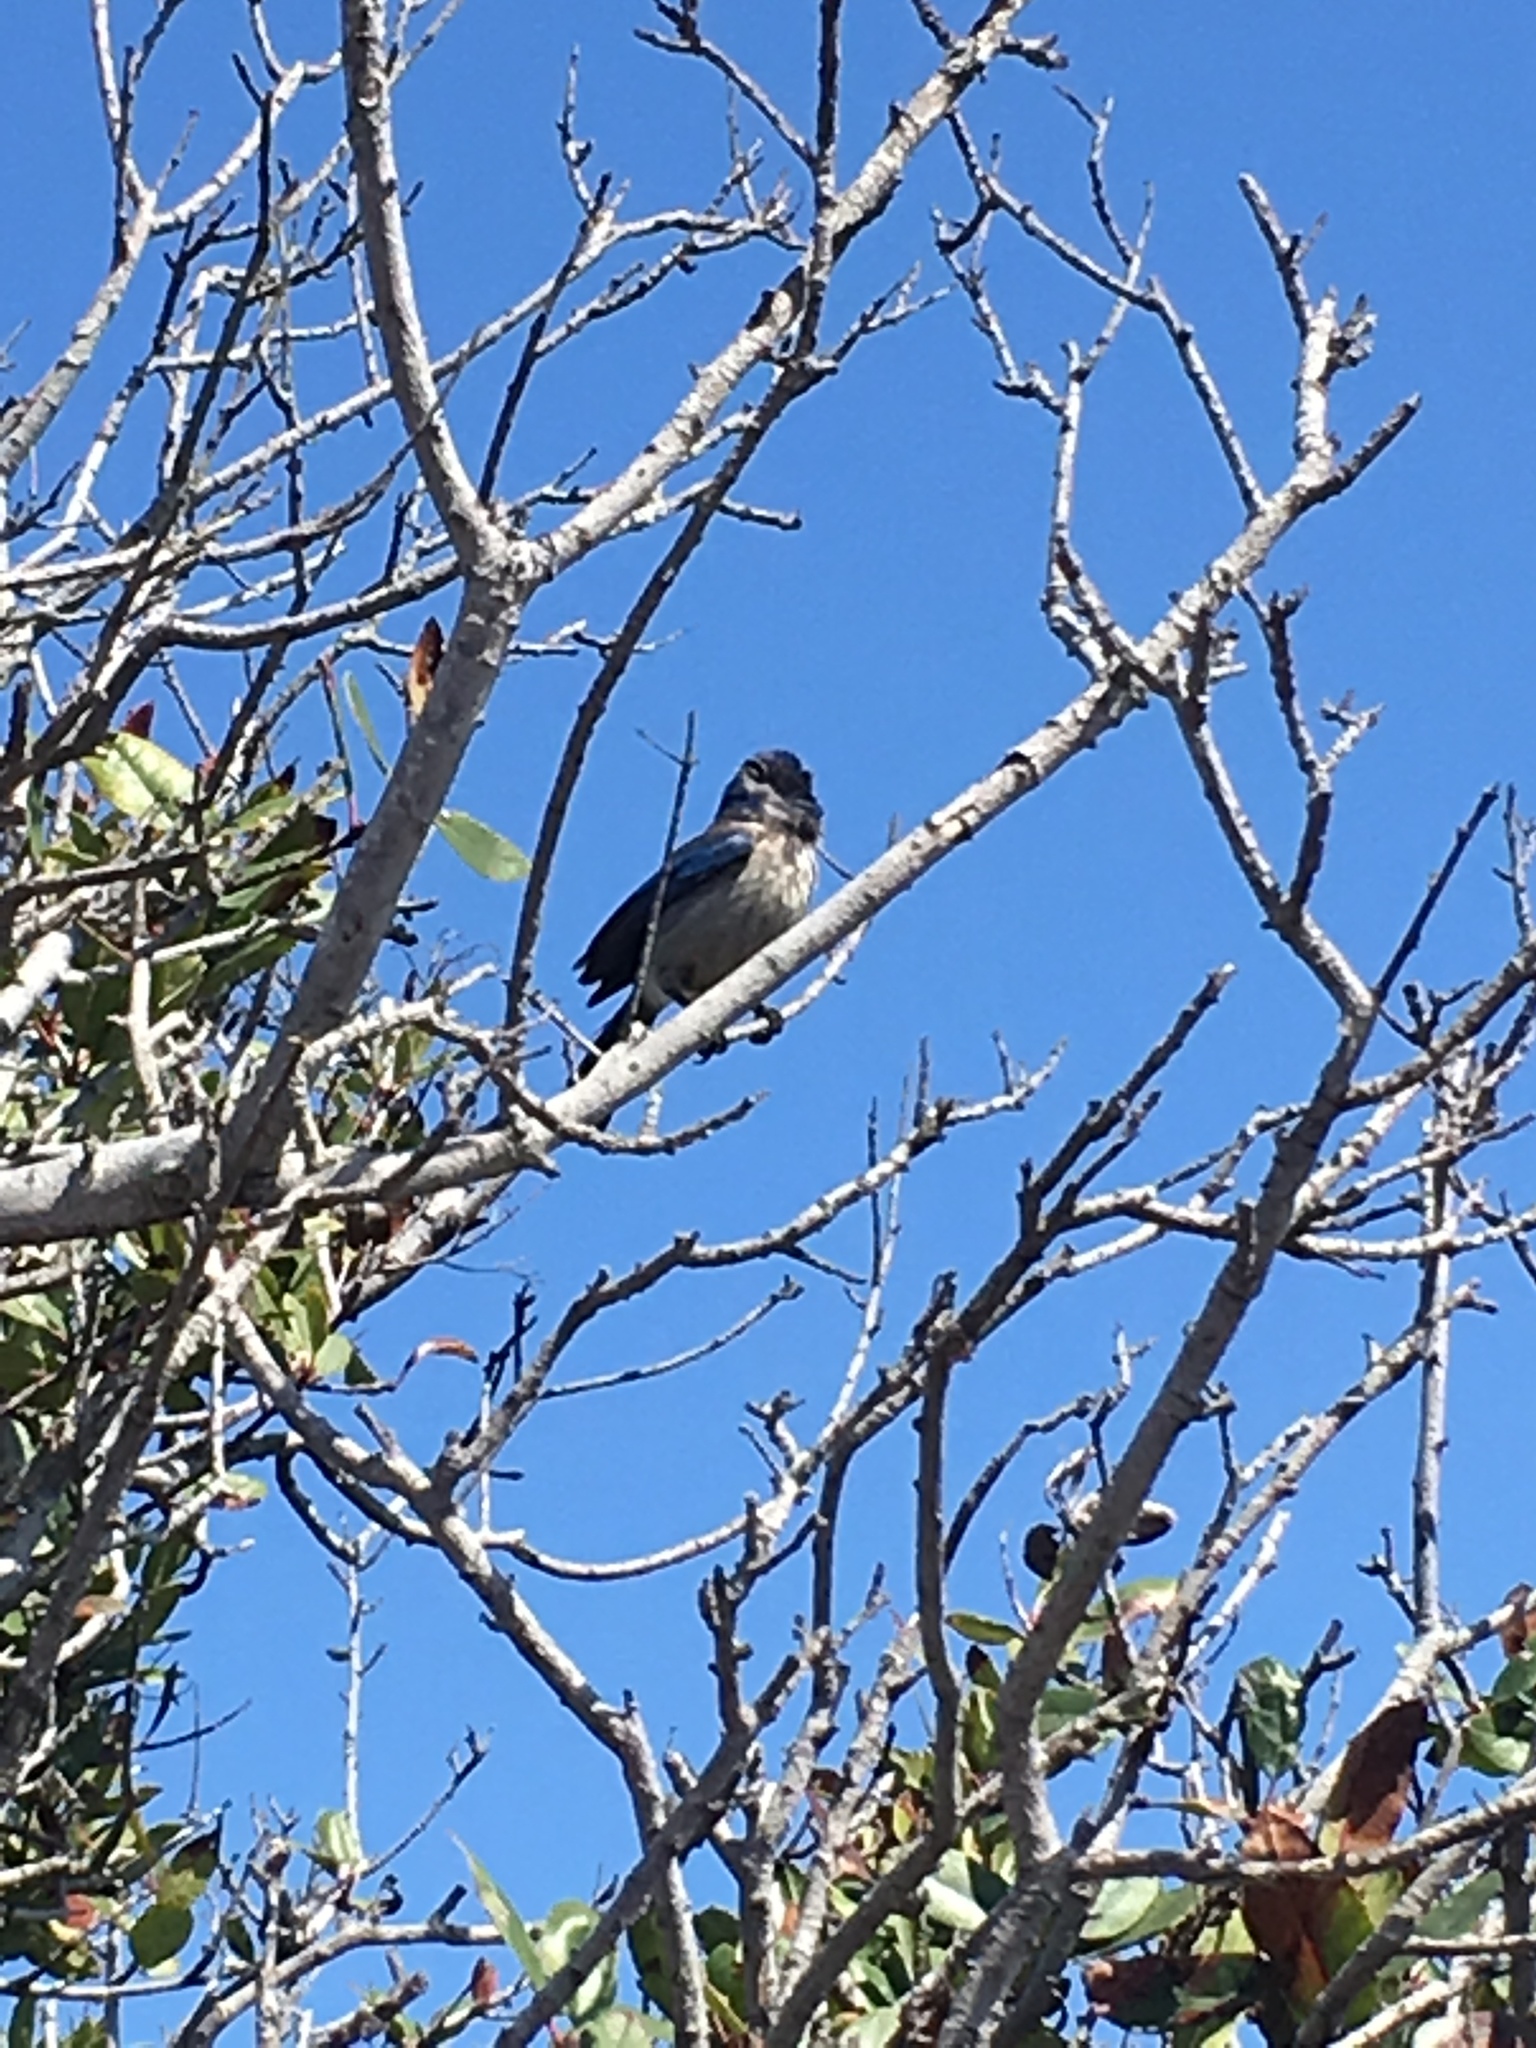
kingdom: Animalia
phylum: Chordata
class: Aves
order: Passeriformes
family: Corvidae
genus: Aphelocoma
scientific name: Aphelocoma californica
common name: California scrub-jay
